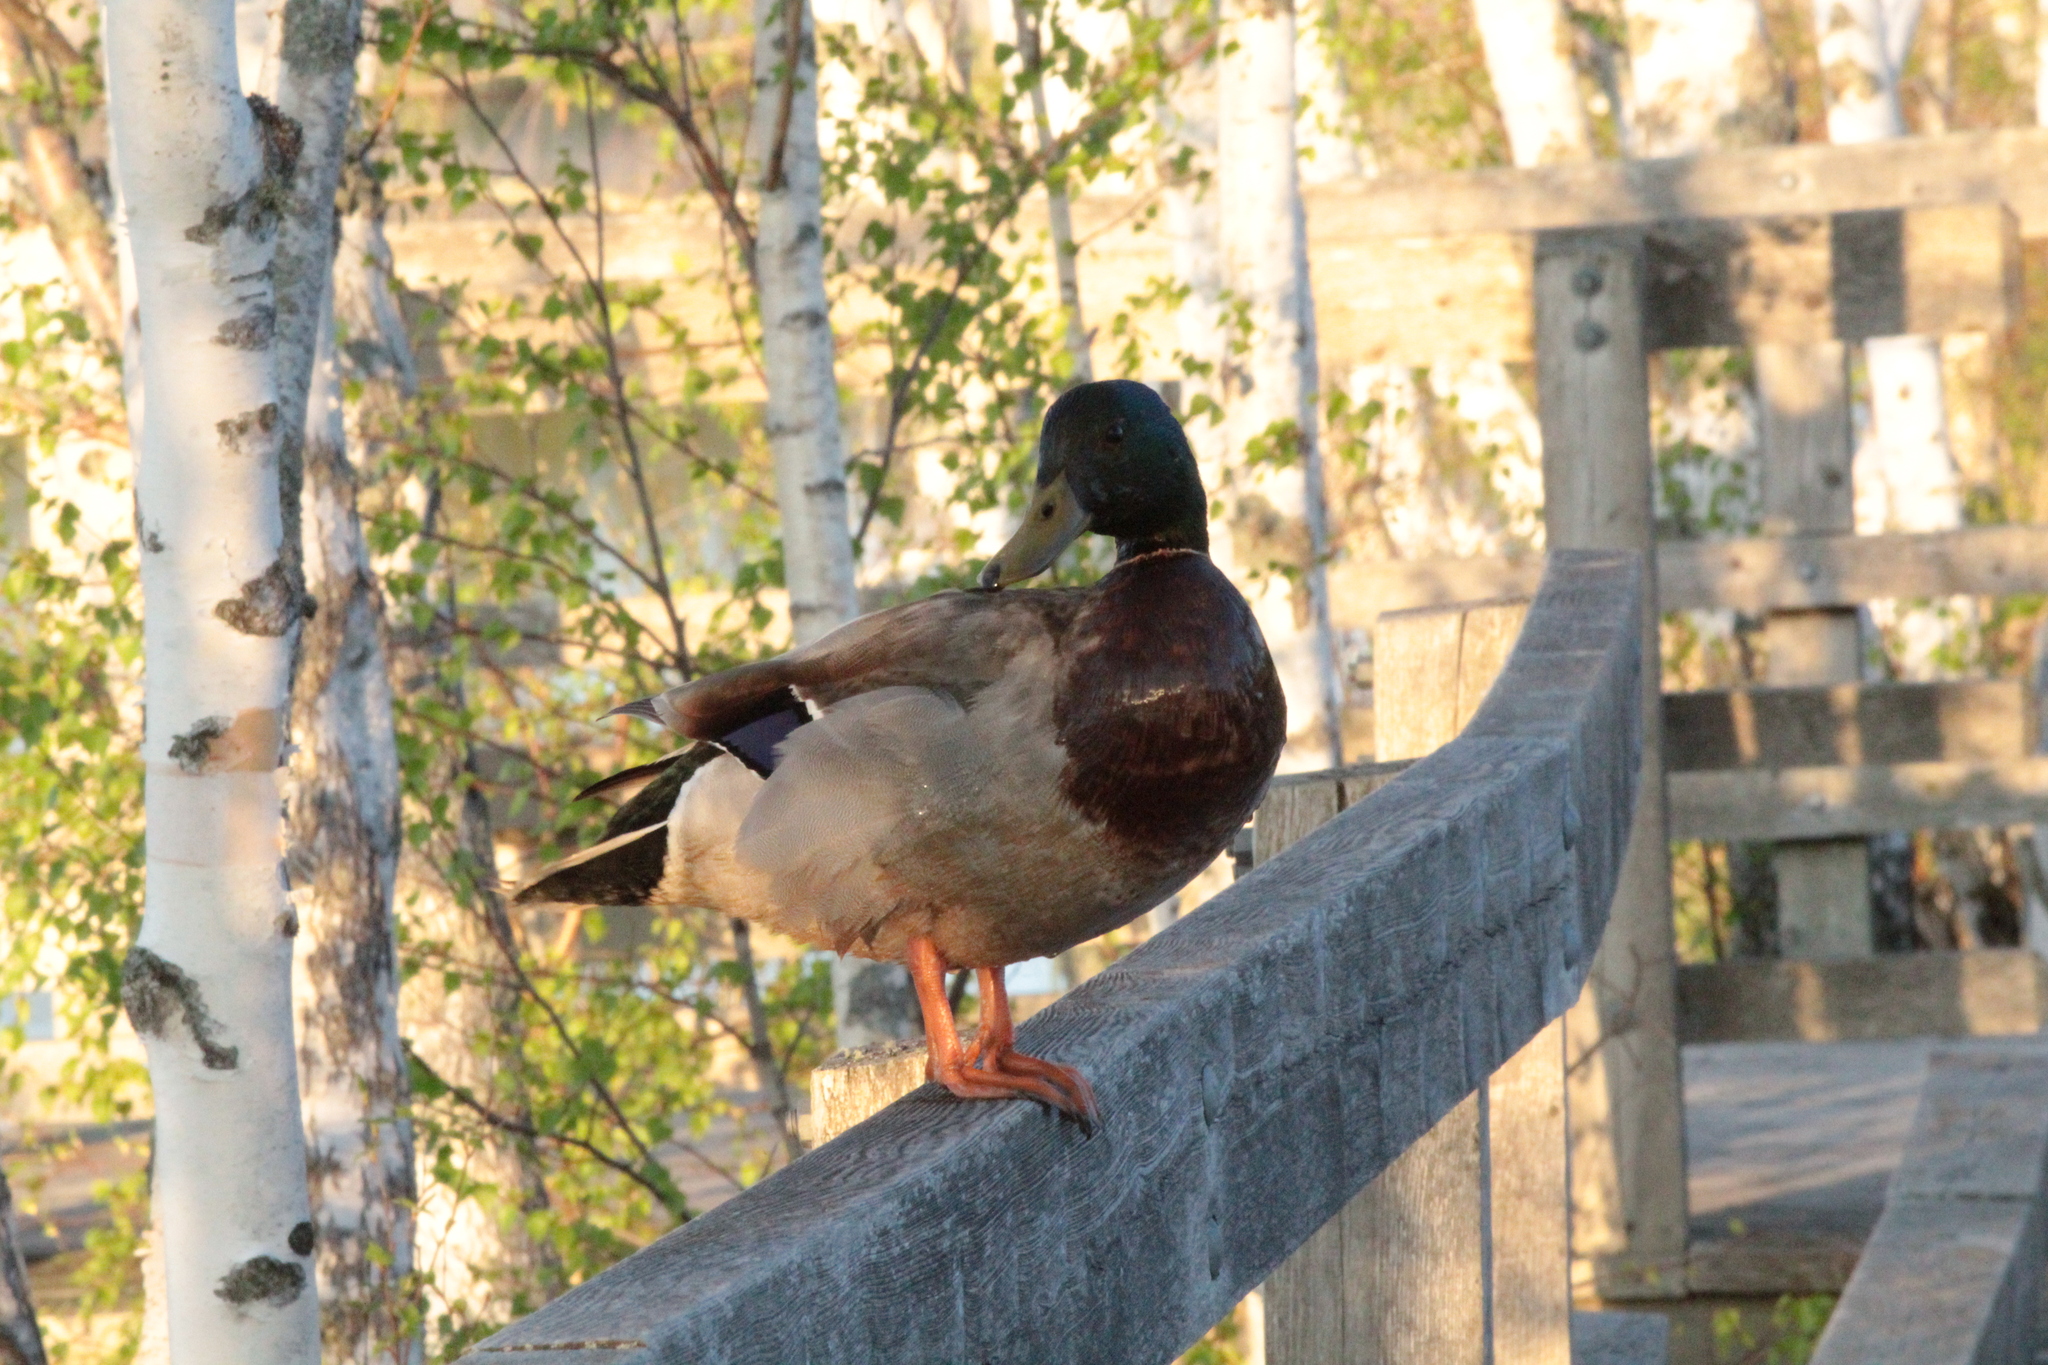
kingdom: Animalia
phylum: Chordata
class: Aves
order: Anseriformes
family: Anatidae
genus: Anas
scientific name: Anas platyrhynchos
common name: Mallard
